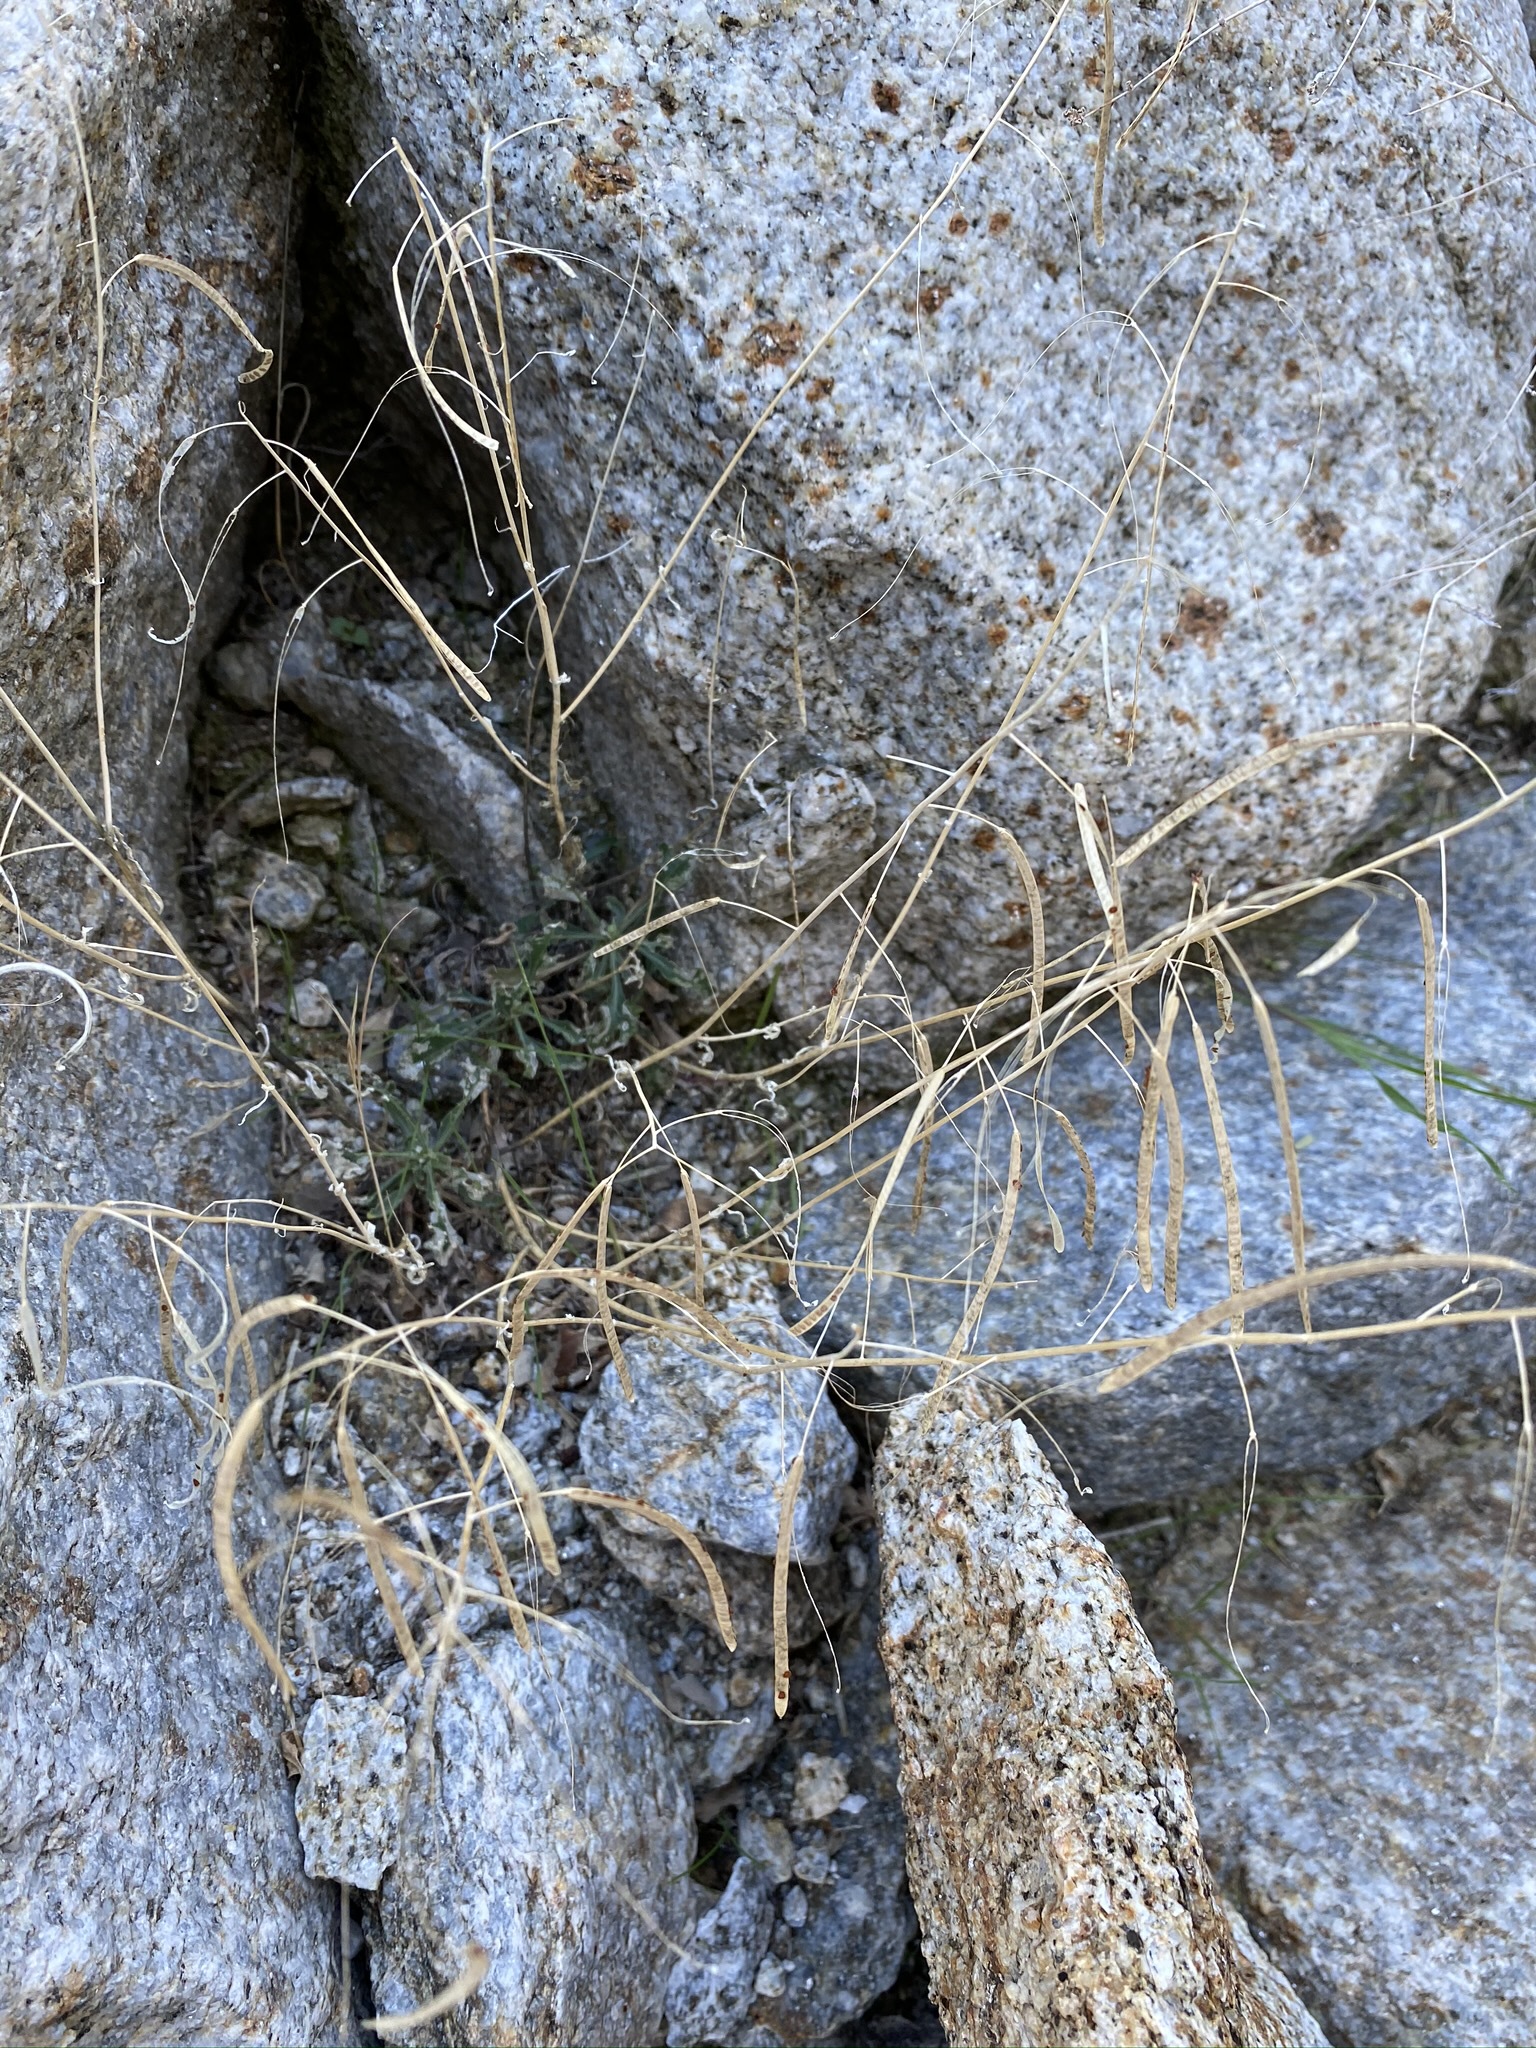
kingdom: Plantae
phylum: Tracheophyta
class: Magnoliopsida
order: Brassicales
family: Brassicaceae
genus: Boechera
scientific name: Boechera perennans
